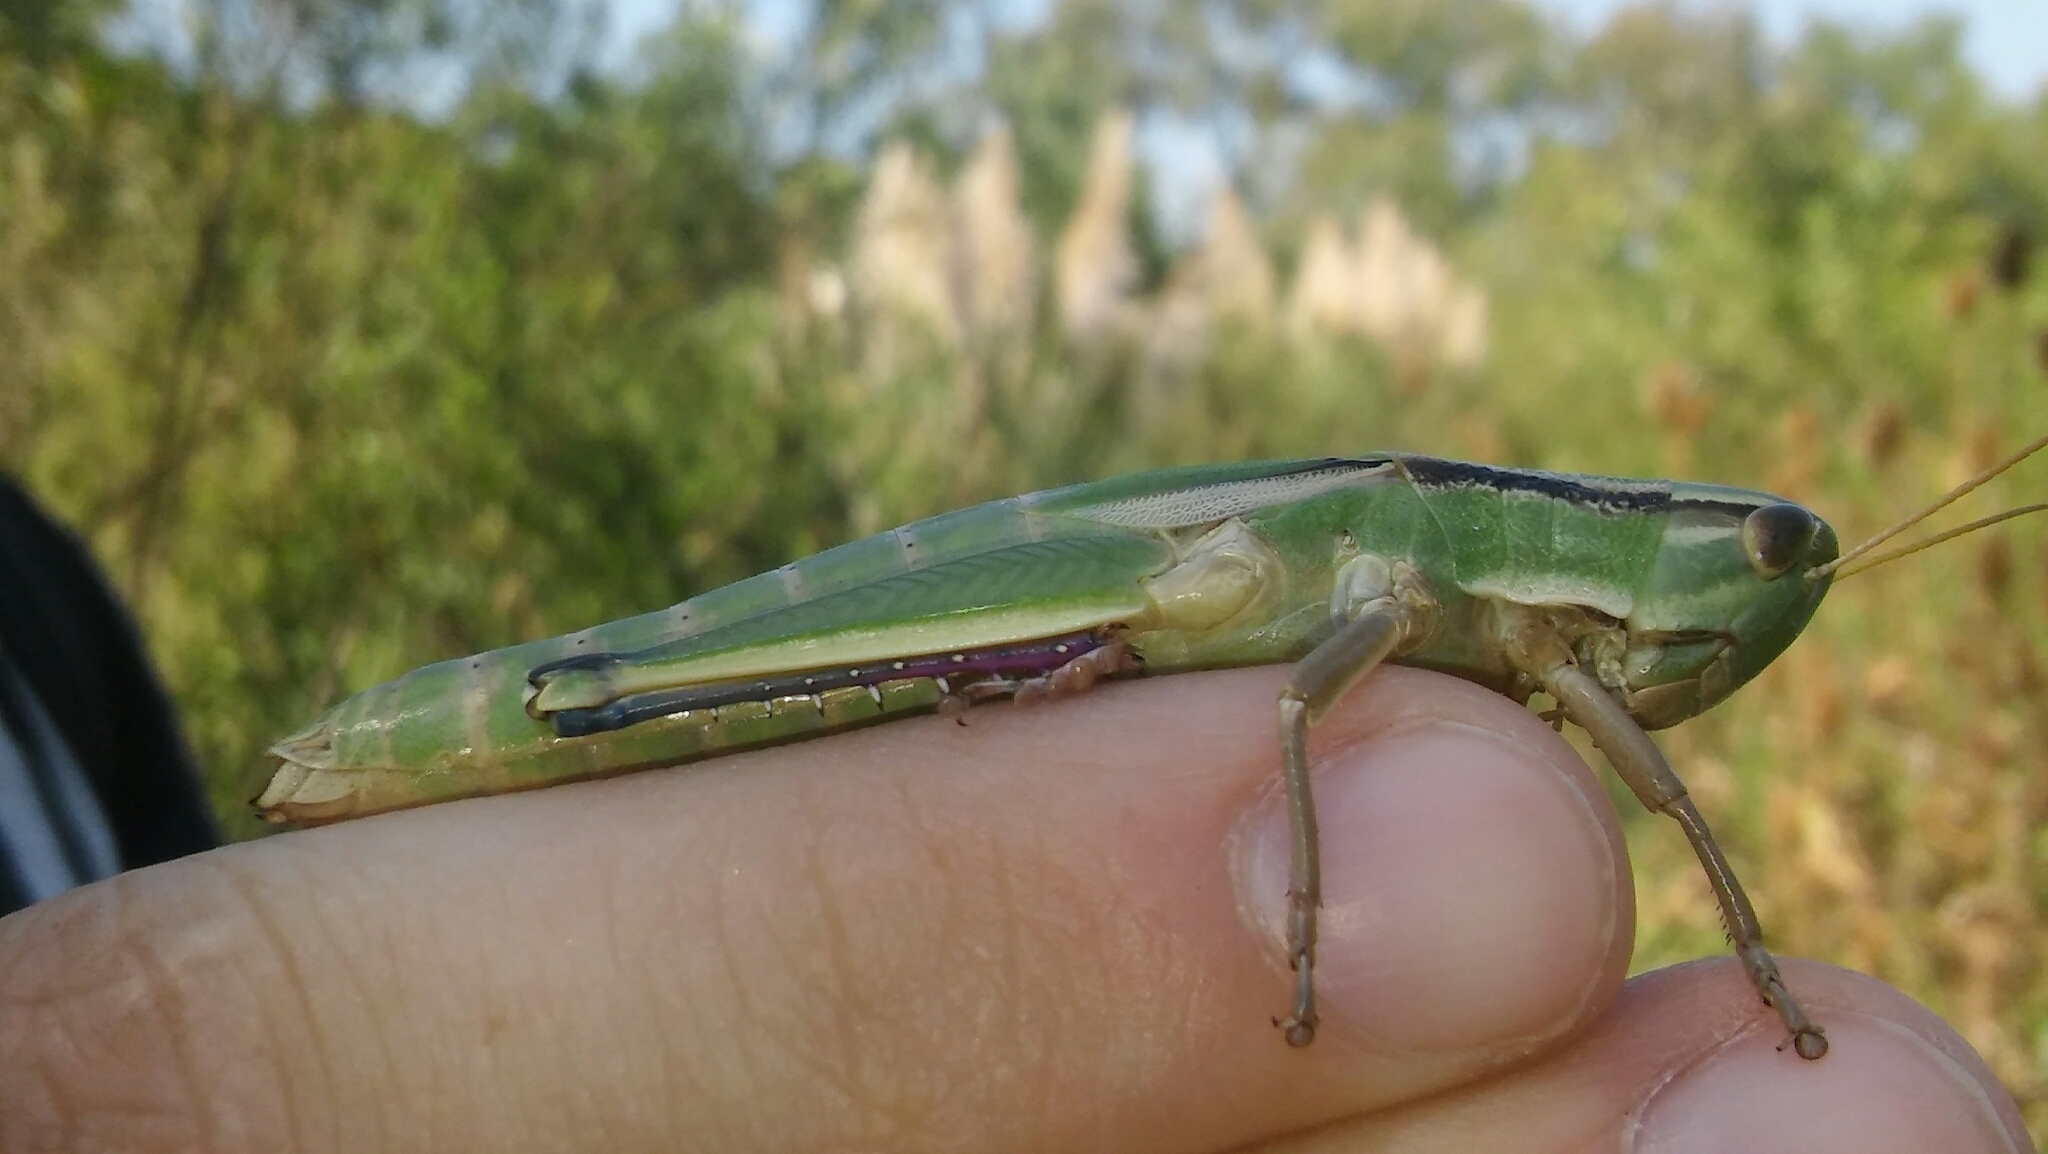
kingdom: Animalia
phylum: Arthropoda
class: Insecta
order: Orthoptera
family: Acrididae
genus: Aleuas
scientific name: Aleuas vitticollis
